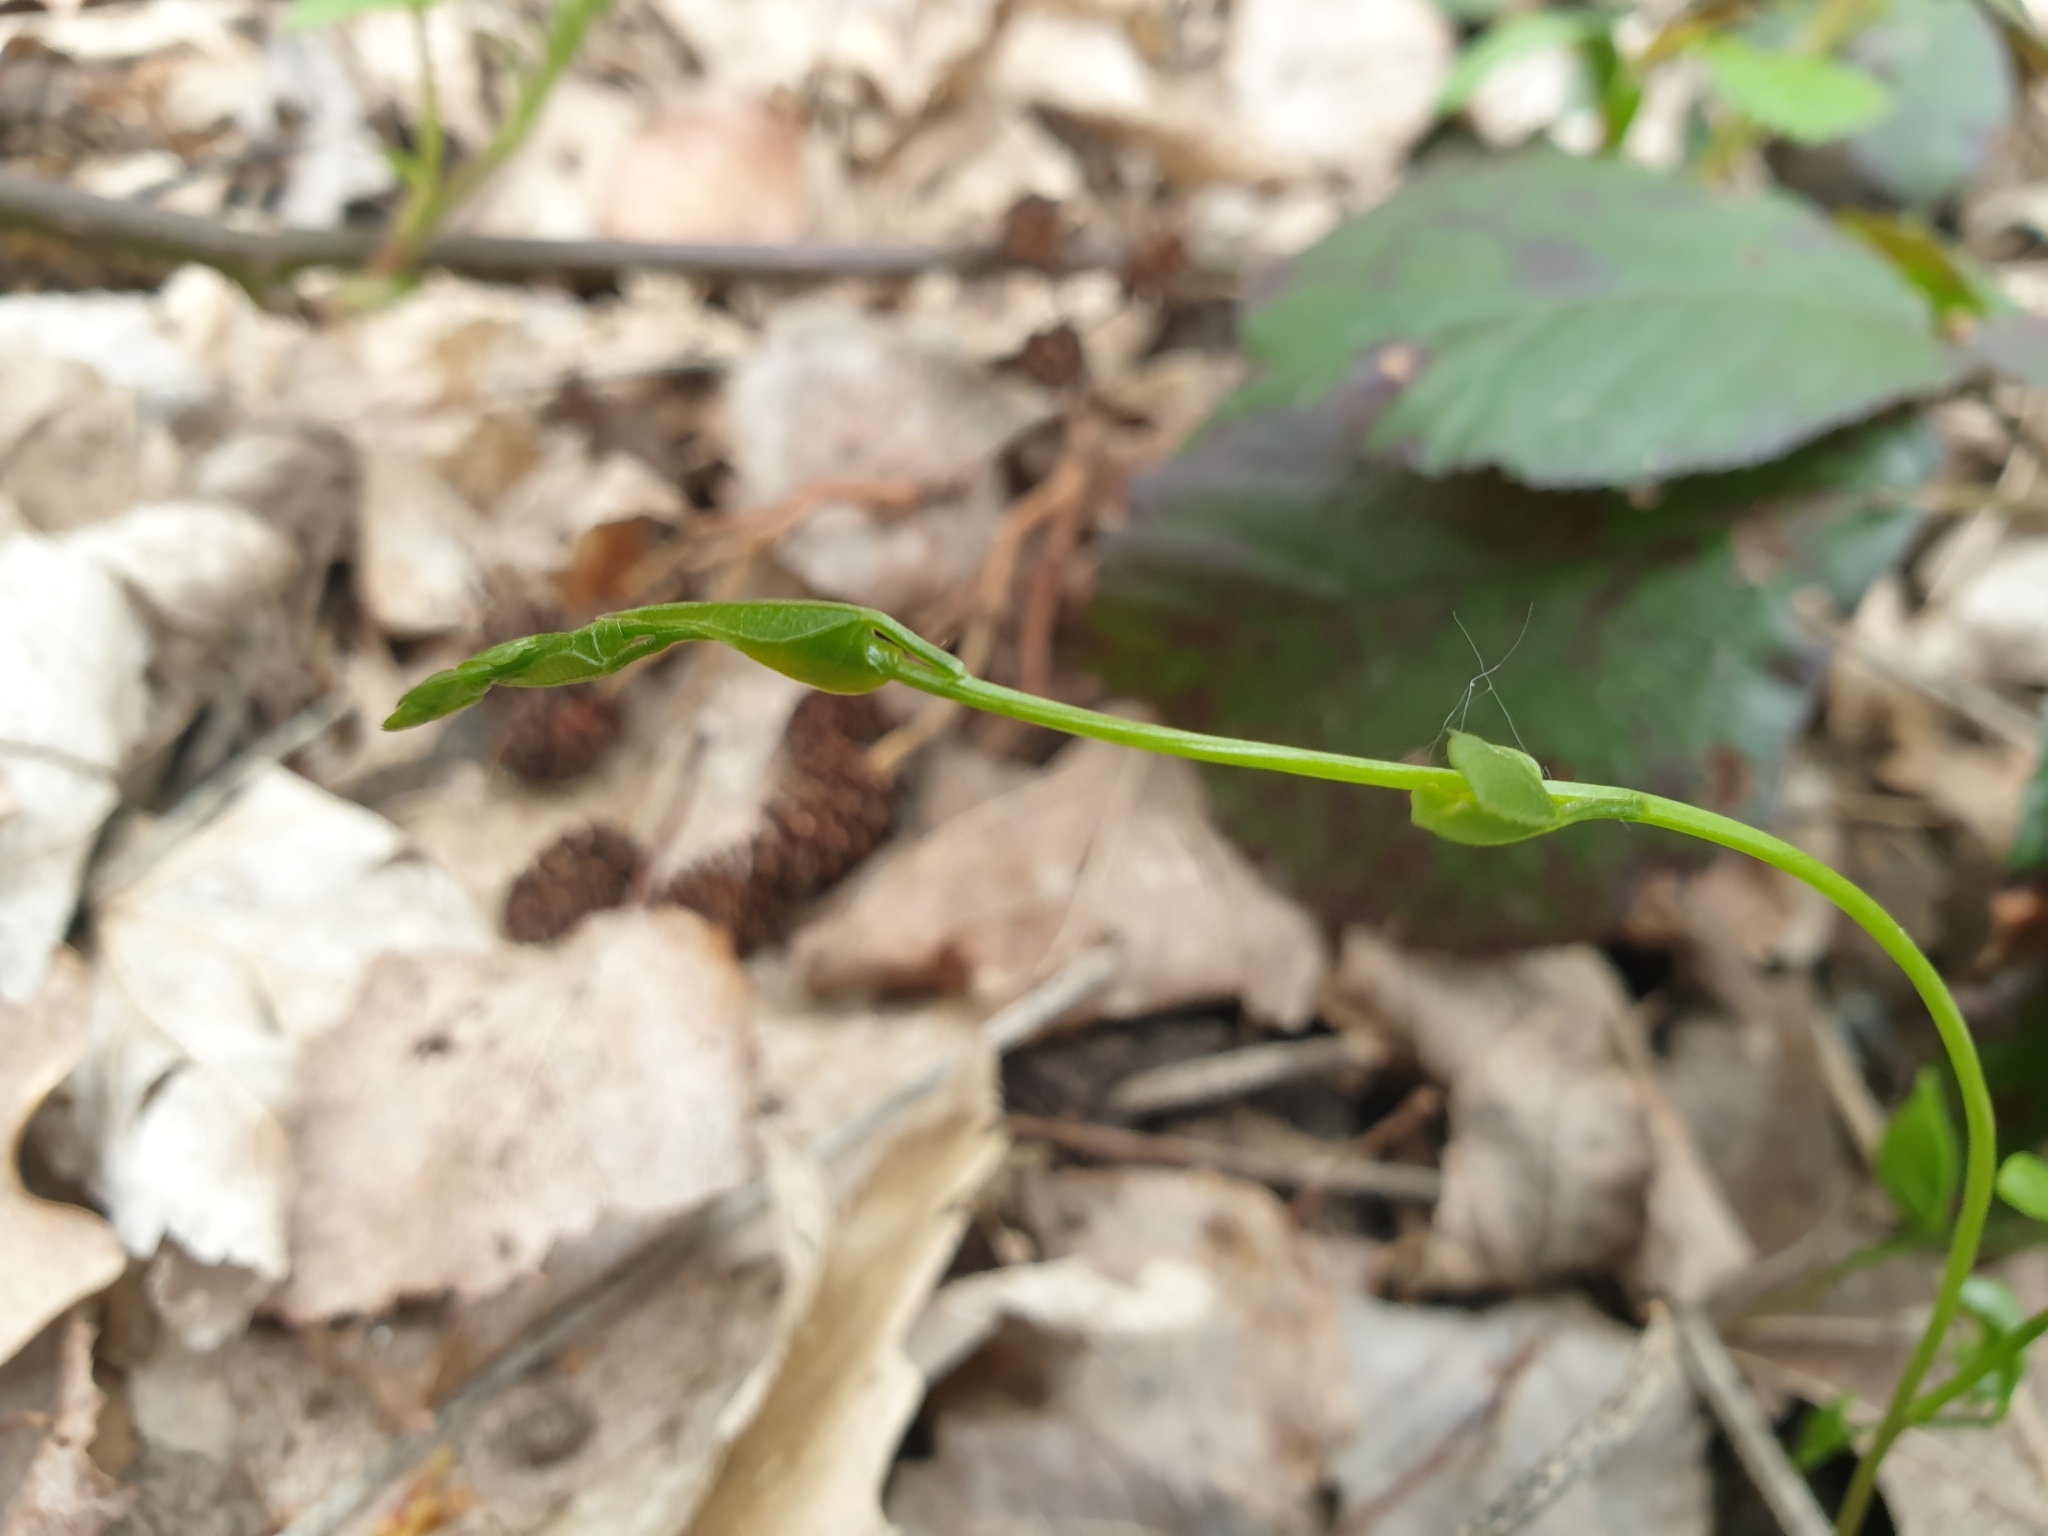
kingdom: Plantae
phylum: Tracheophyta
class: Liliopsida
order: Dioscoreales
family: Dioscoreaceae
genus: Dioscorea
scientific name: Dioscorea communis
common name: Black-bindweed
